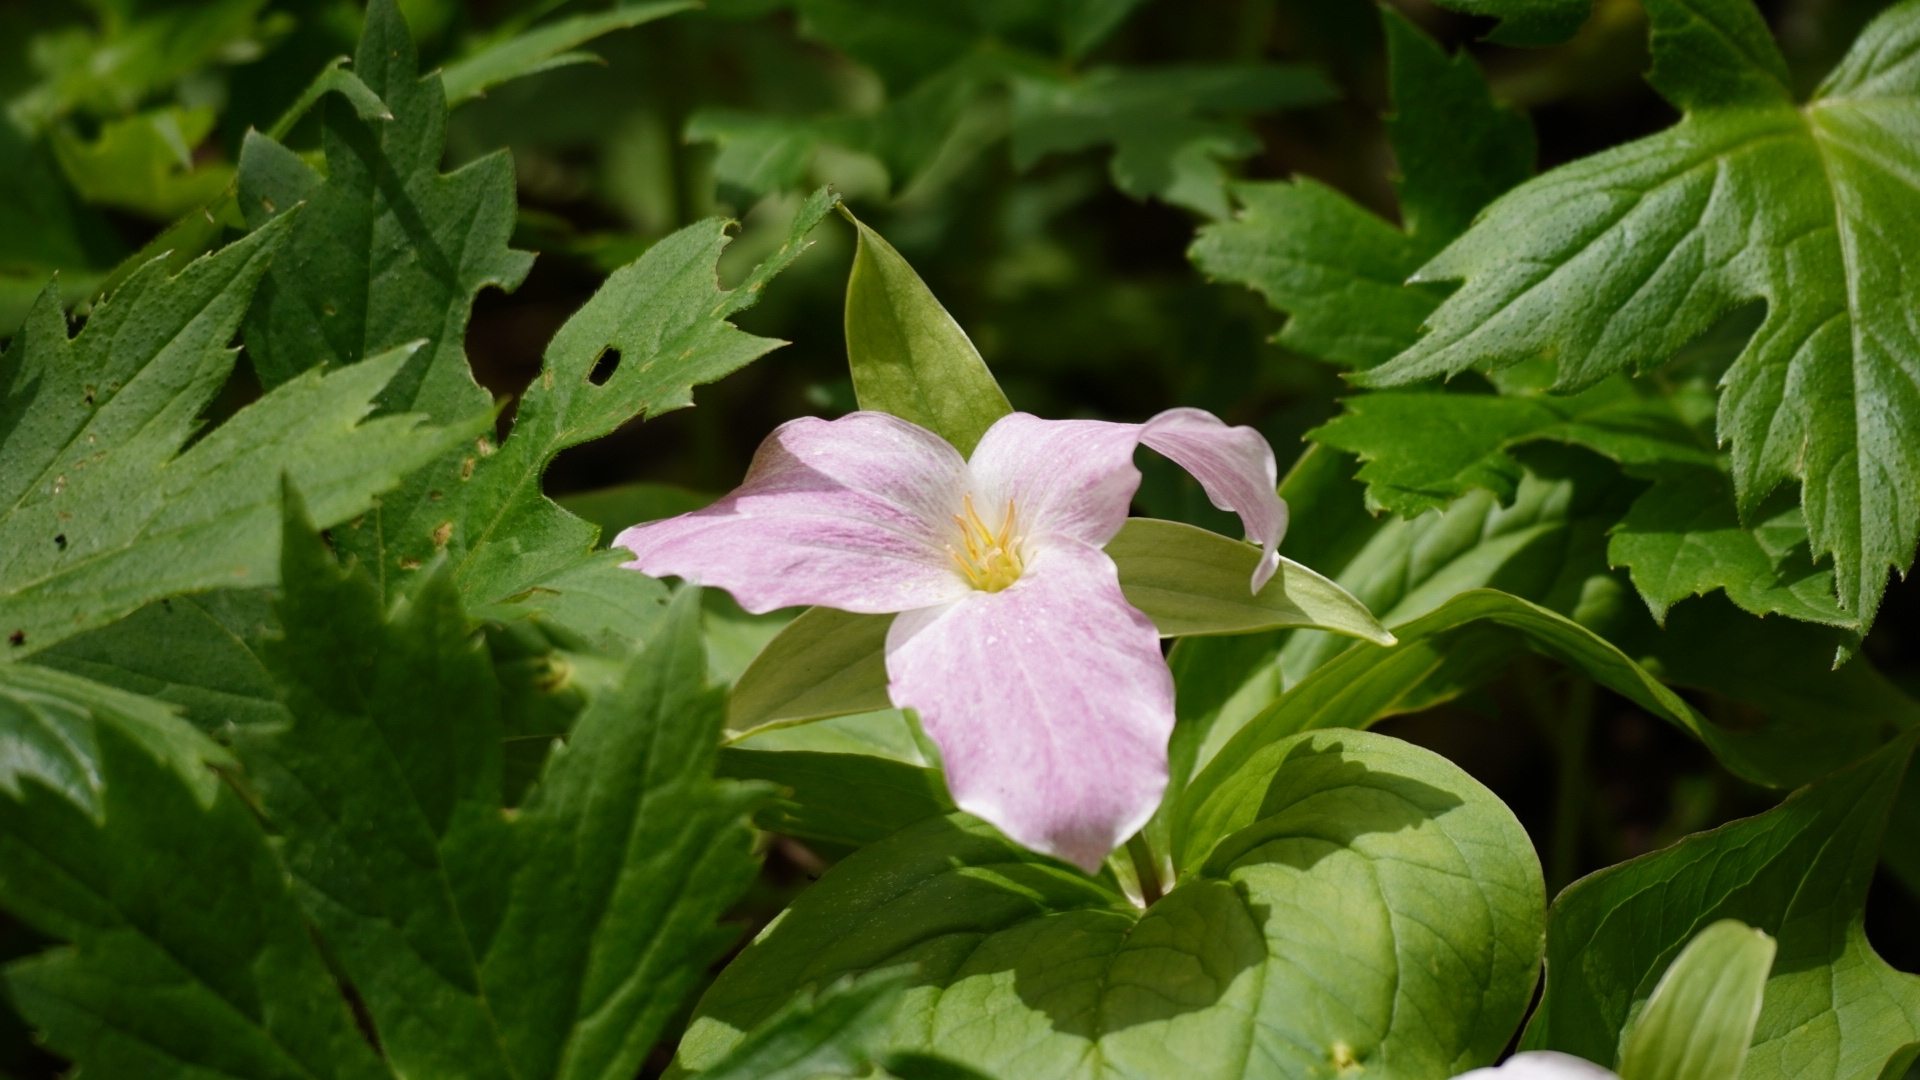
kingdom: Plantae
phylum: Tracheophyta
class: Liliopsida
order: Liliales
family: Melanthiaceae
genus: Trillium
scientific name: Trillium grandiflorum
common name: Great white trillium
